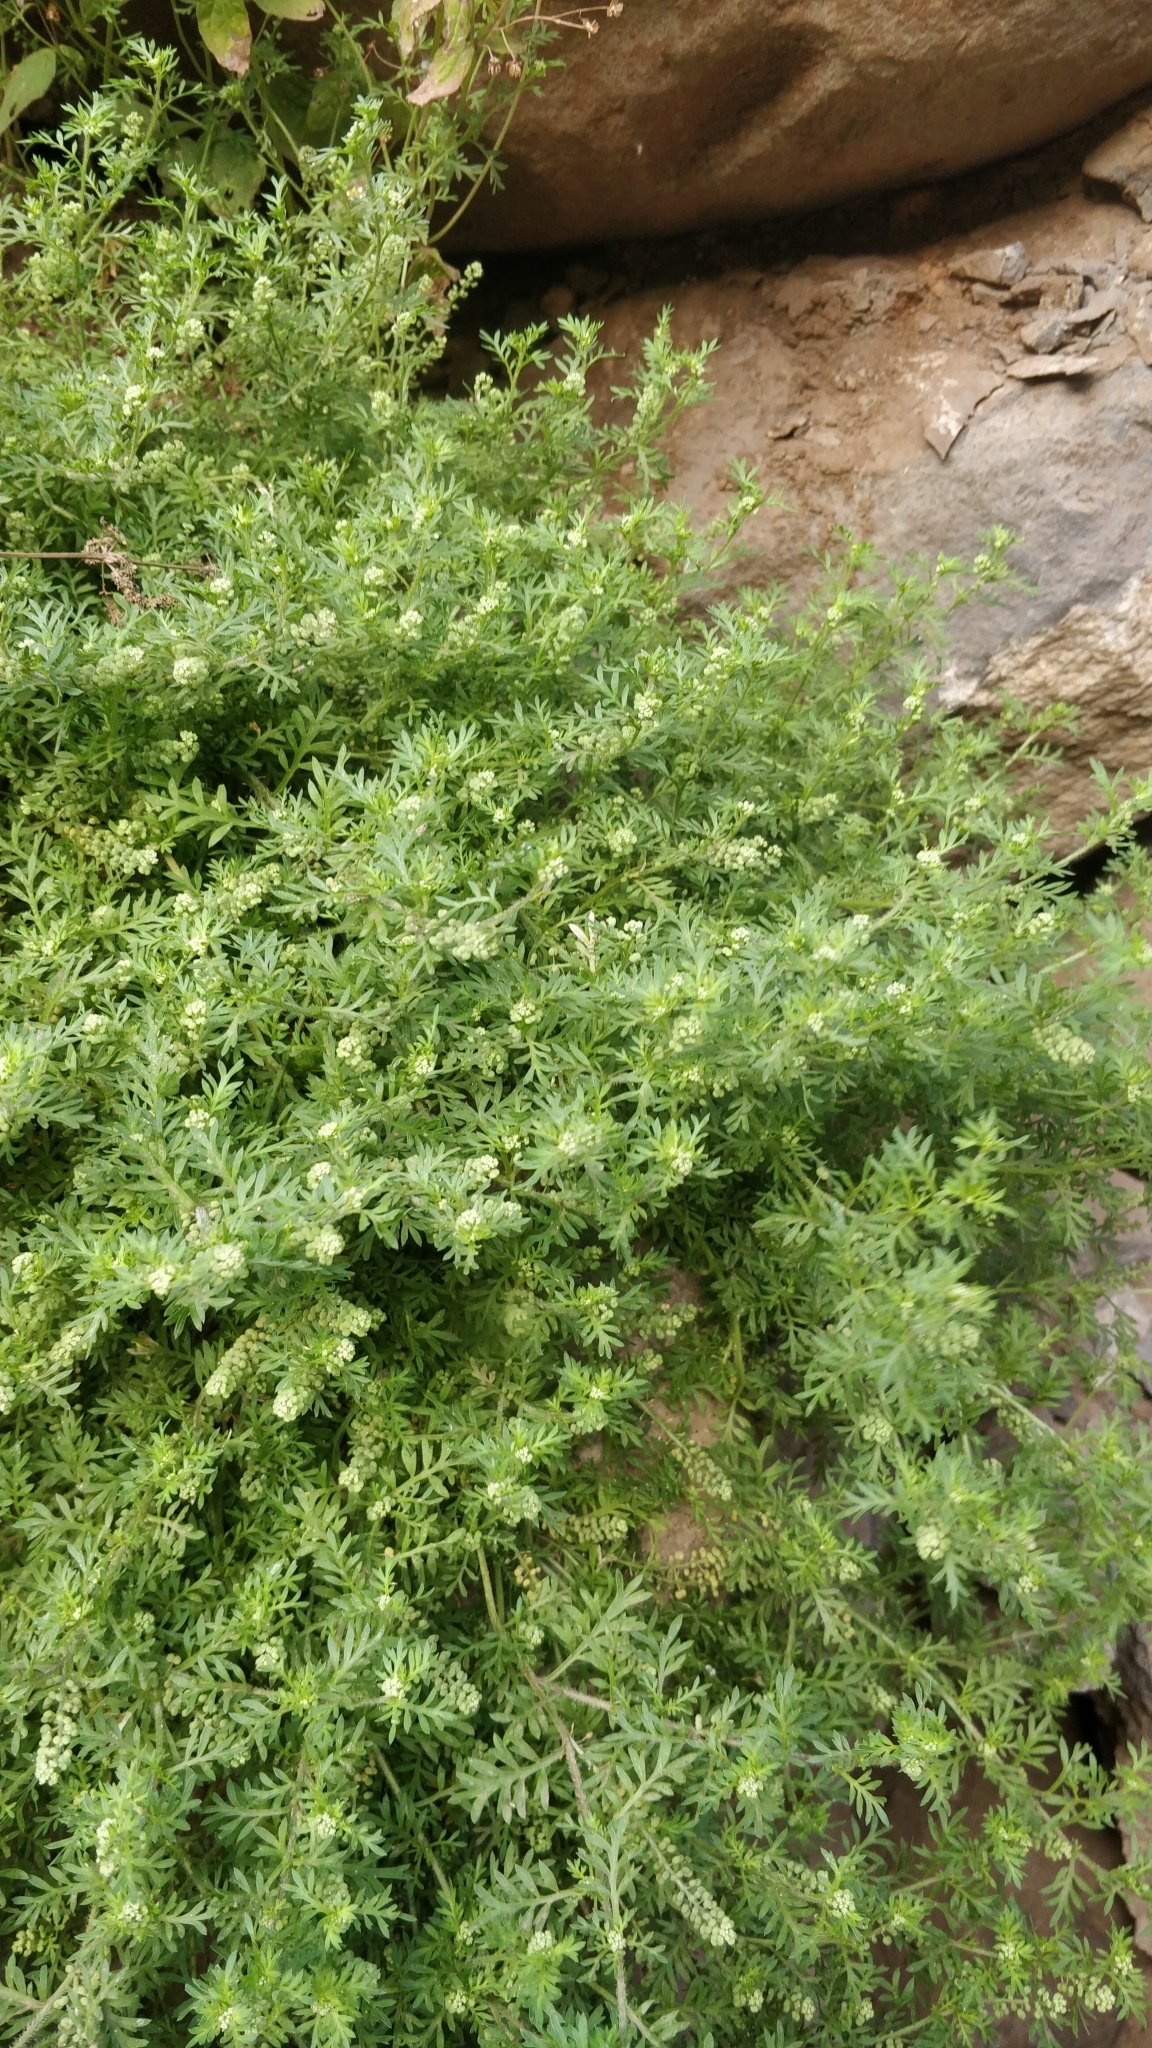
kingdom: Plantae
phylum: Tracheophyta
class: Magnoliopsida
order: Brassicales
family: Brassicaceae
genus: Lepidium
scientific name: Lepidium didymum
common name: Lesser swinecress
